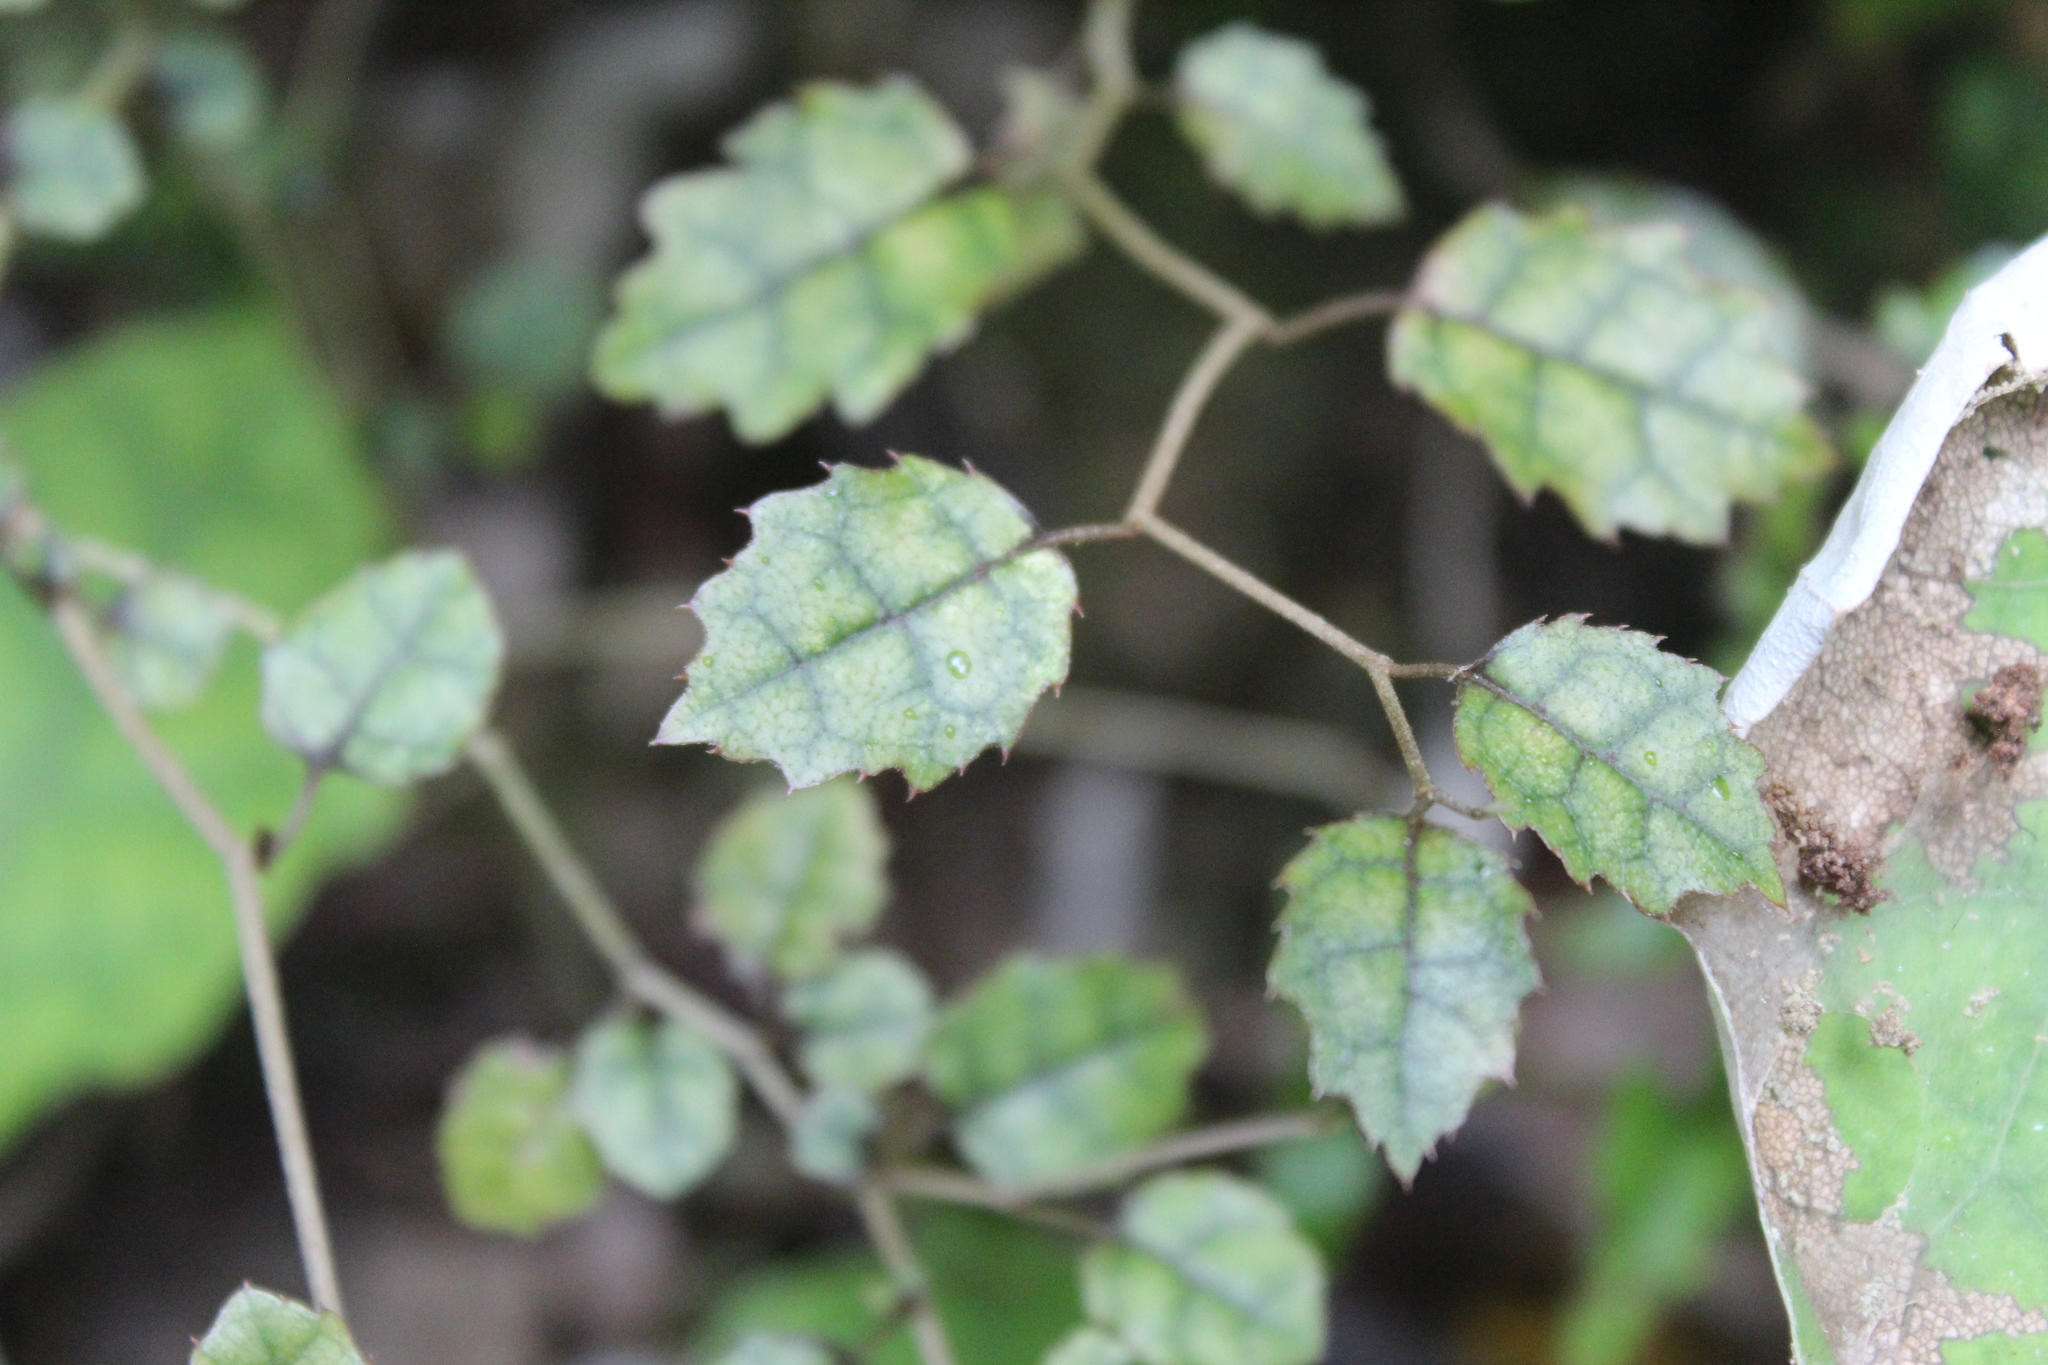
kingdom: Plantae
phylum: Tracheophyta
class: Magnoliopsida
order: Asterales
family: Rousseaceae
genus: Carpodetus
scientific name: Carpodetus serratus
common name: White mapau
